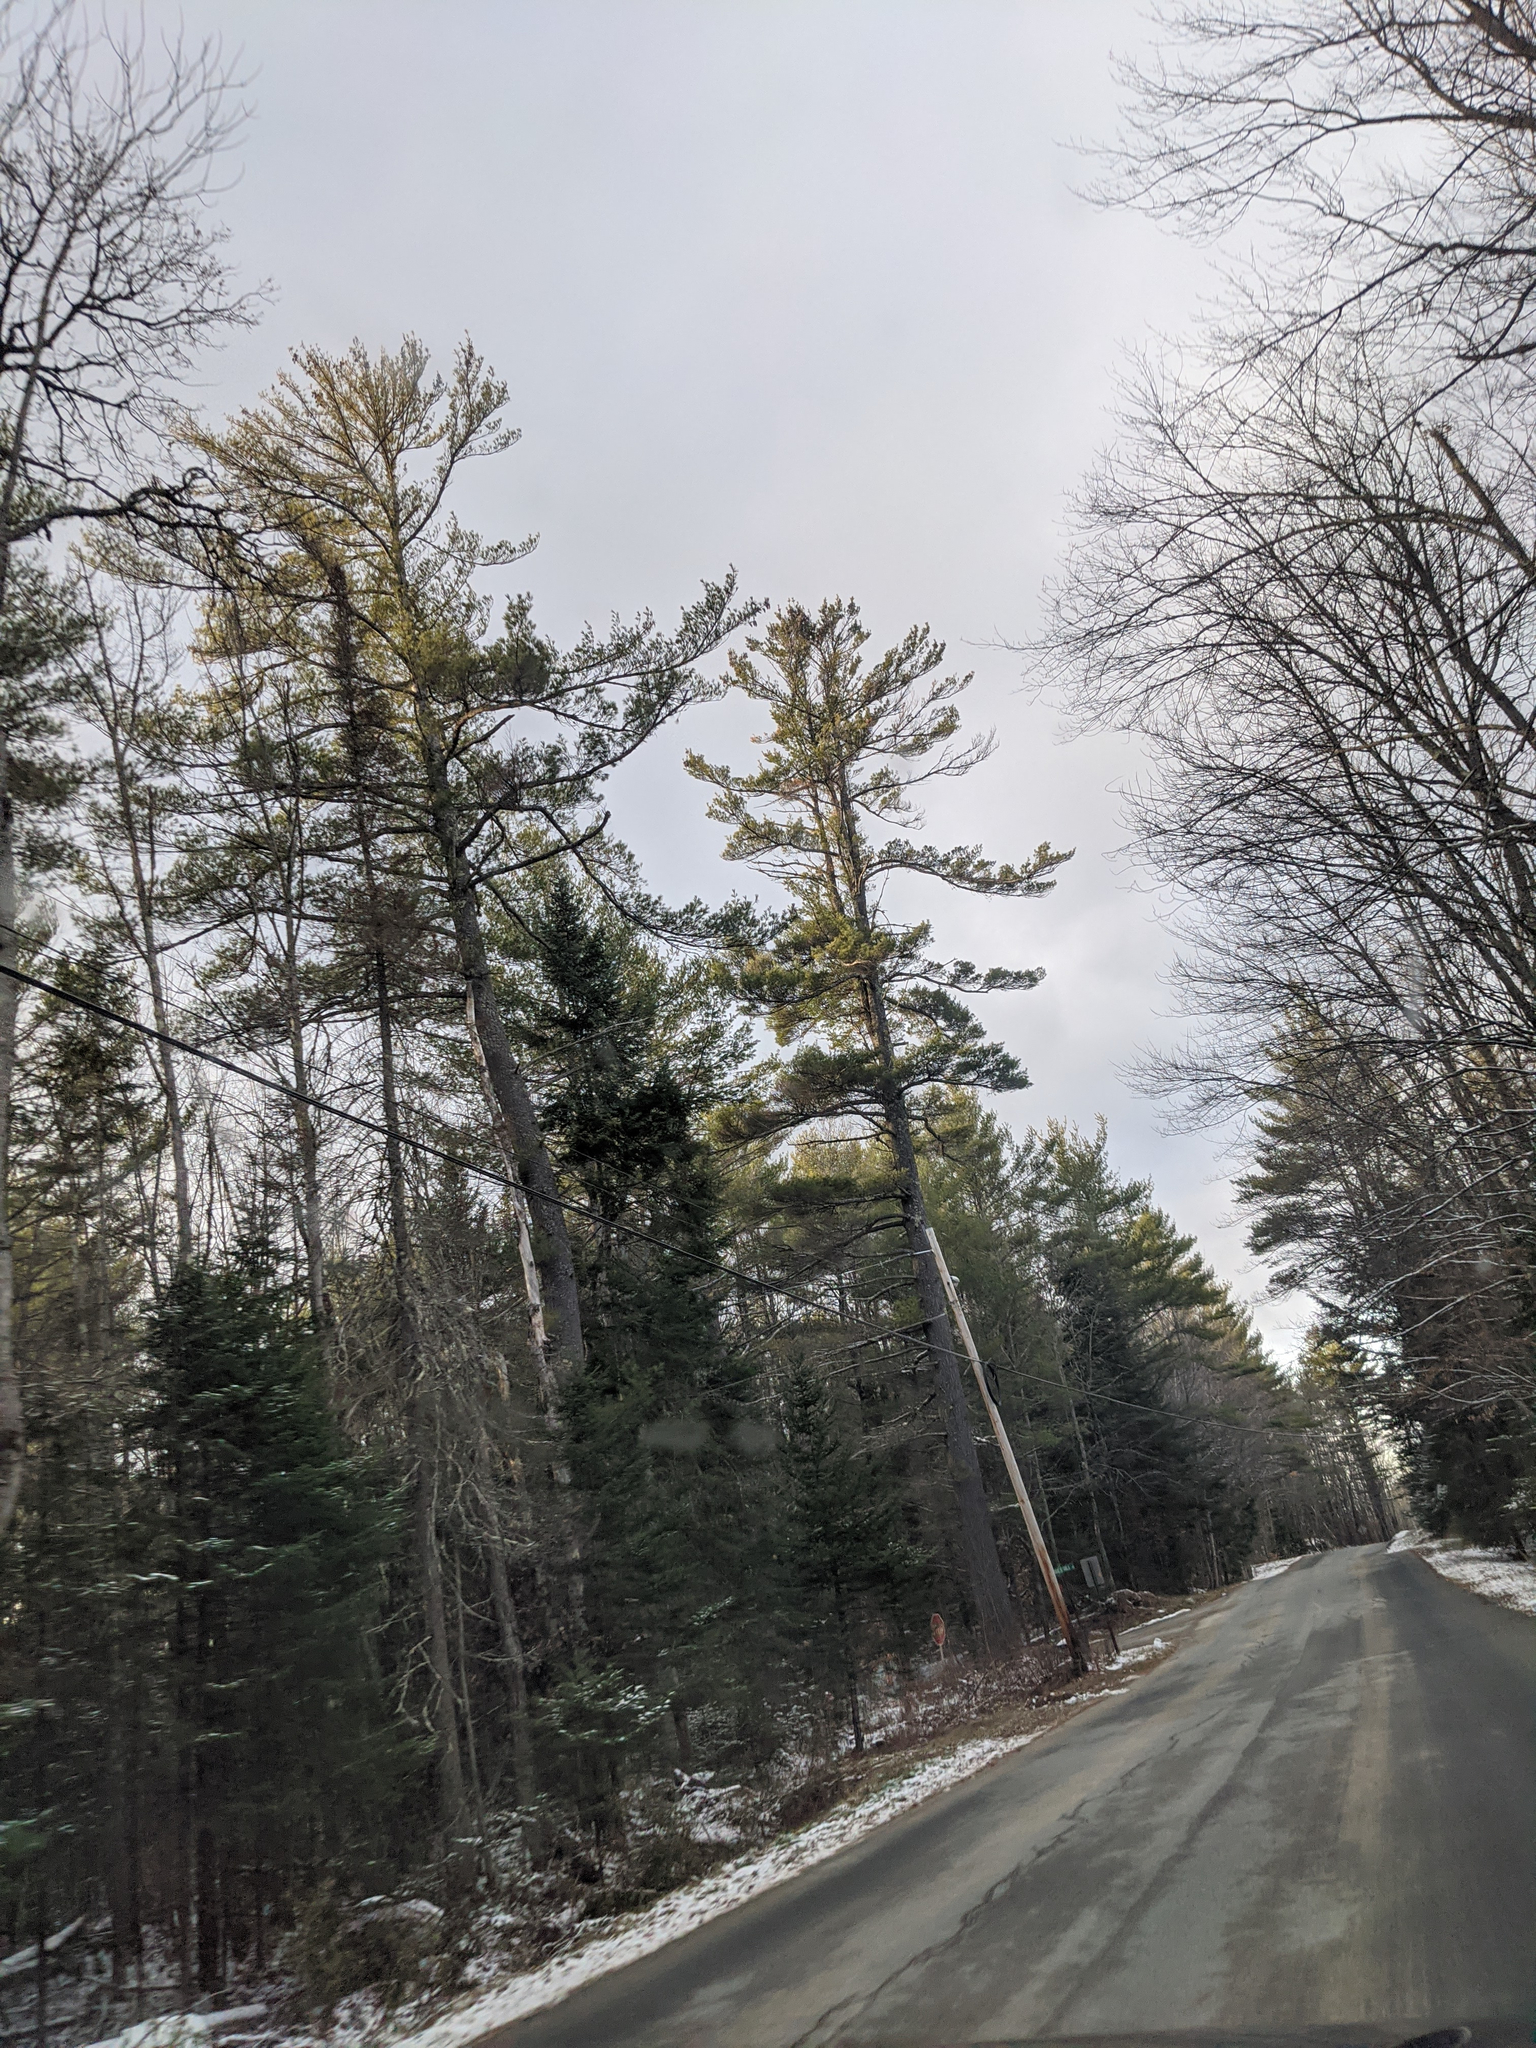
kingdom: Plantae
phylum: Tracheophyta
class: Pinopsida
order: Pinales
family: Pinaceae
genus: Pinus
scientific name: Pinus strobus
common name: Weymouth pine
